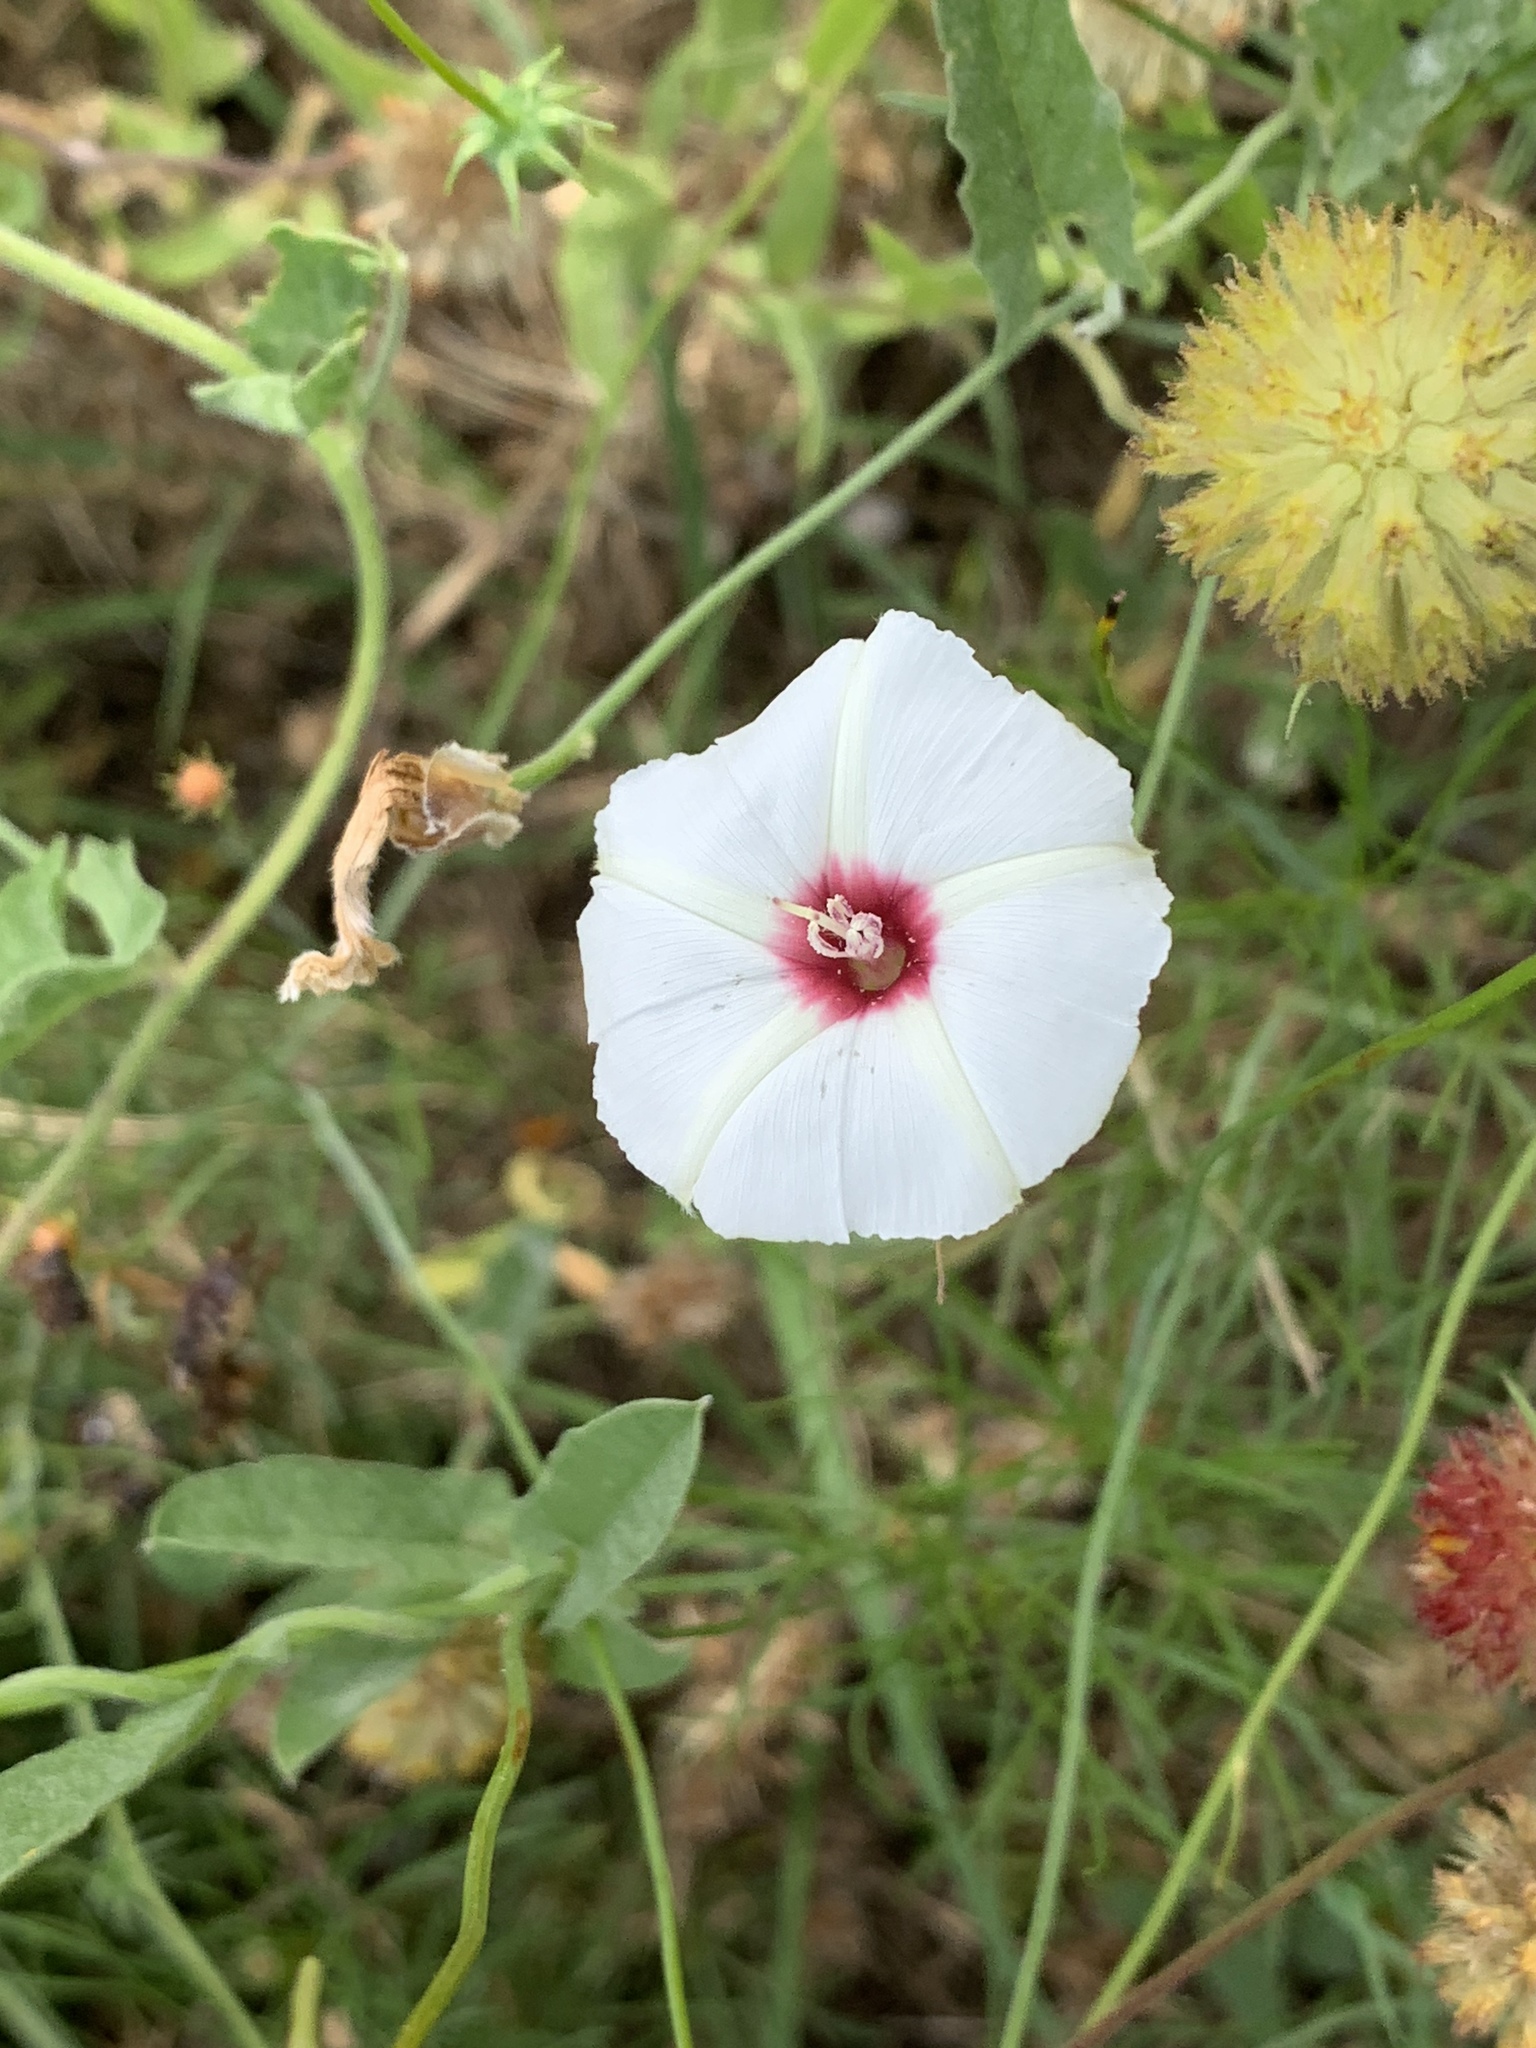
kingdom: Plantae
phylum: Tracheophyta
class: Magnoliopsida
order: Solanales
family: Convolvulaceae
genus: Convolvulus
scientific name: Convolvulus equitans
